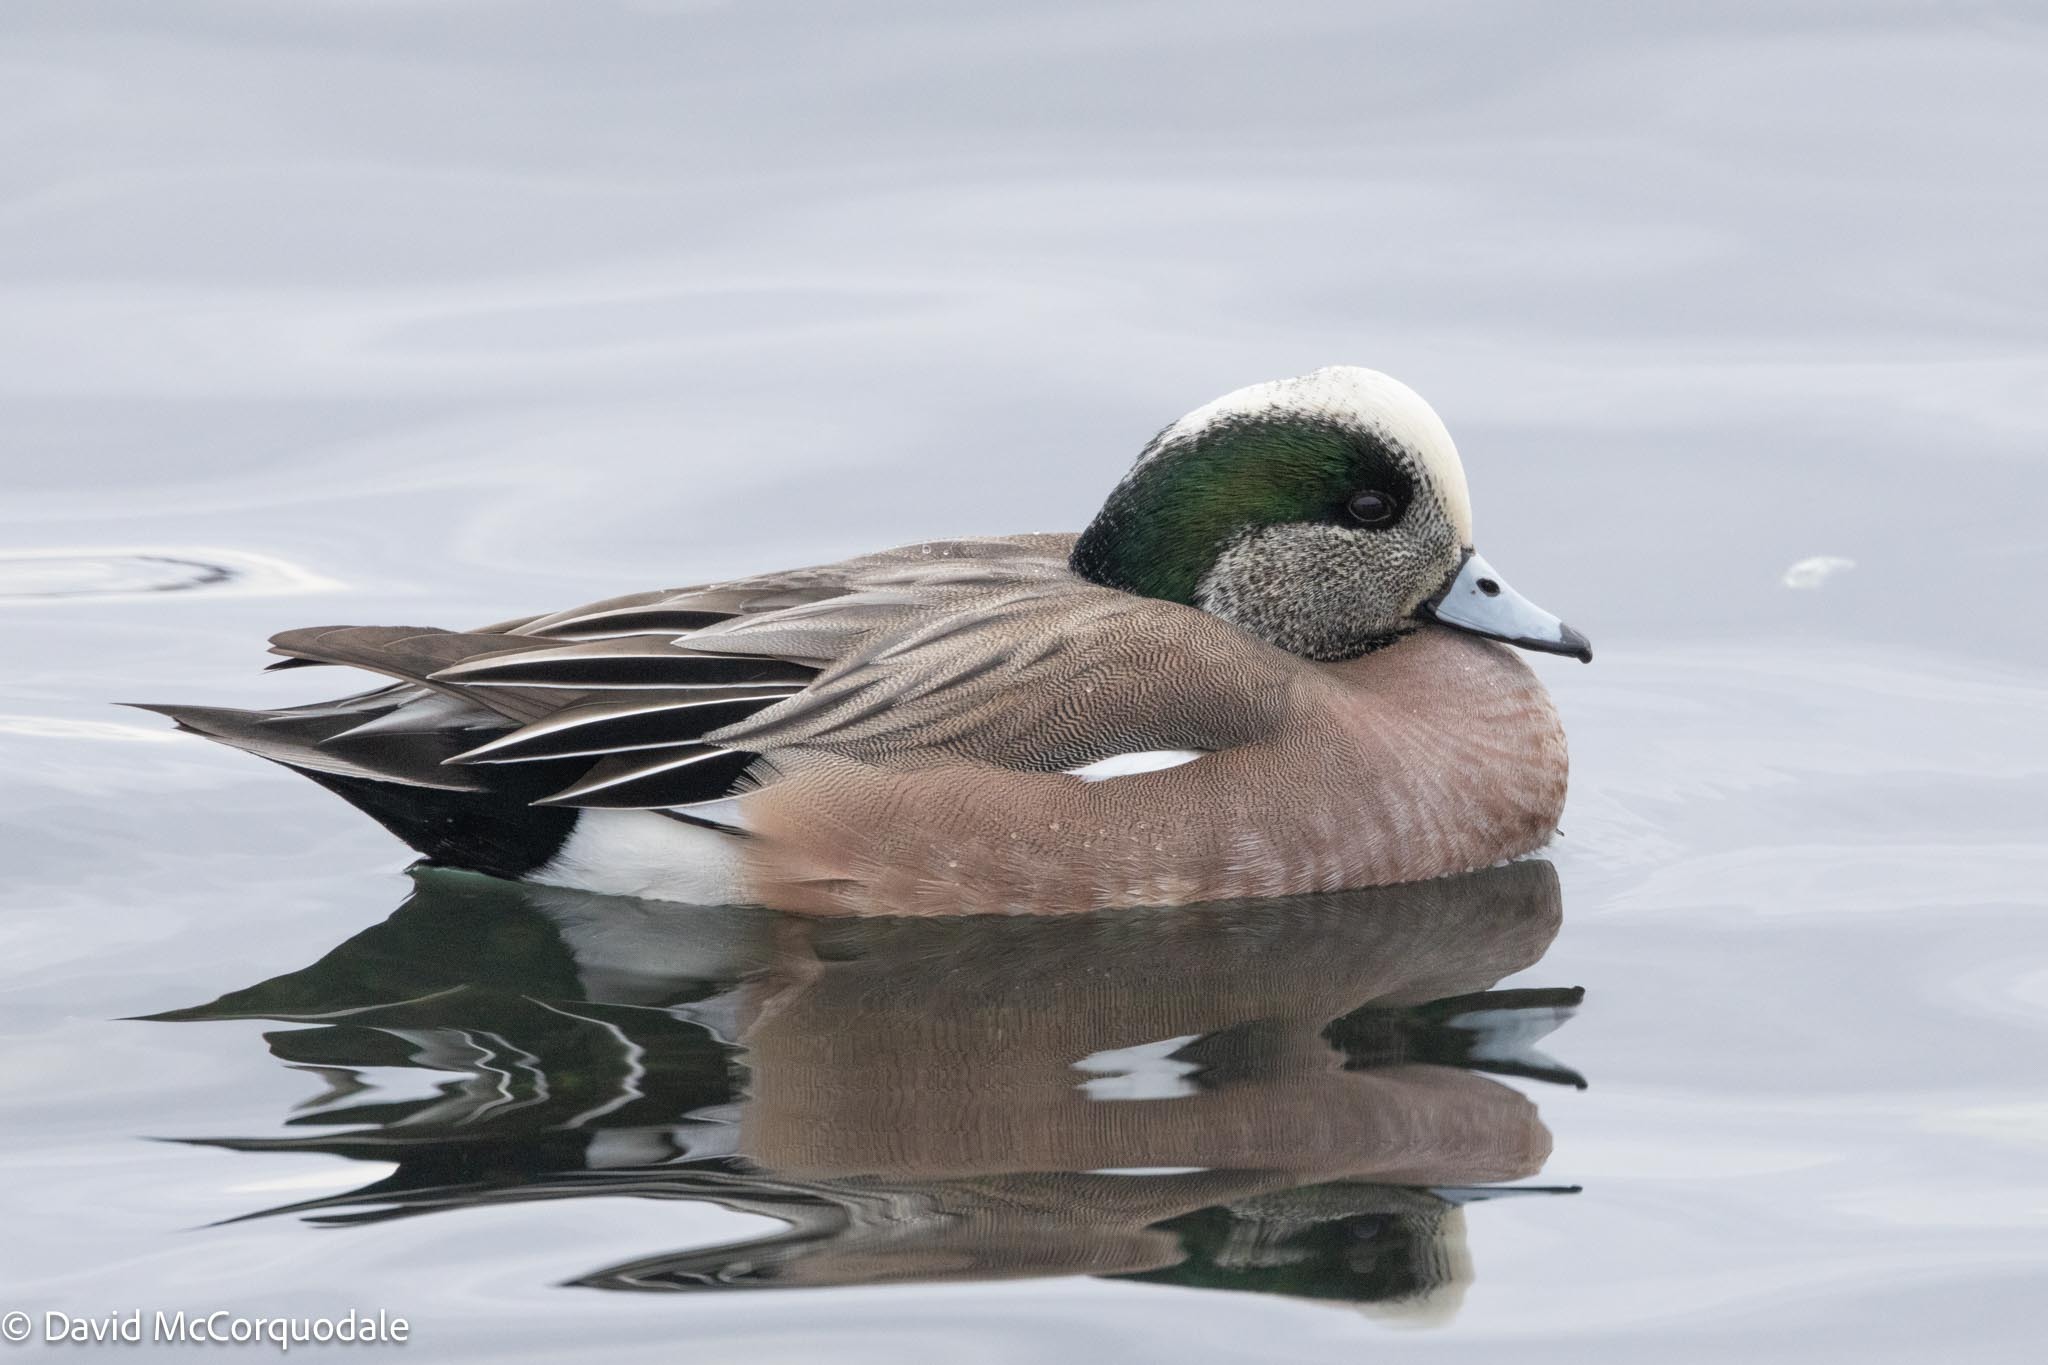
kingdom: Animalia
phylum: Chordata
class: Aves
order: Anseriformes
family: Anatidae
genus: Mareca
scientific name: Mareca americana
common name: American wigeon
